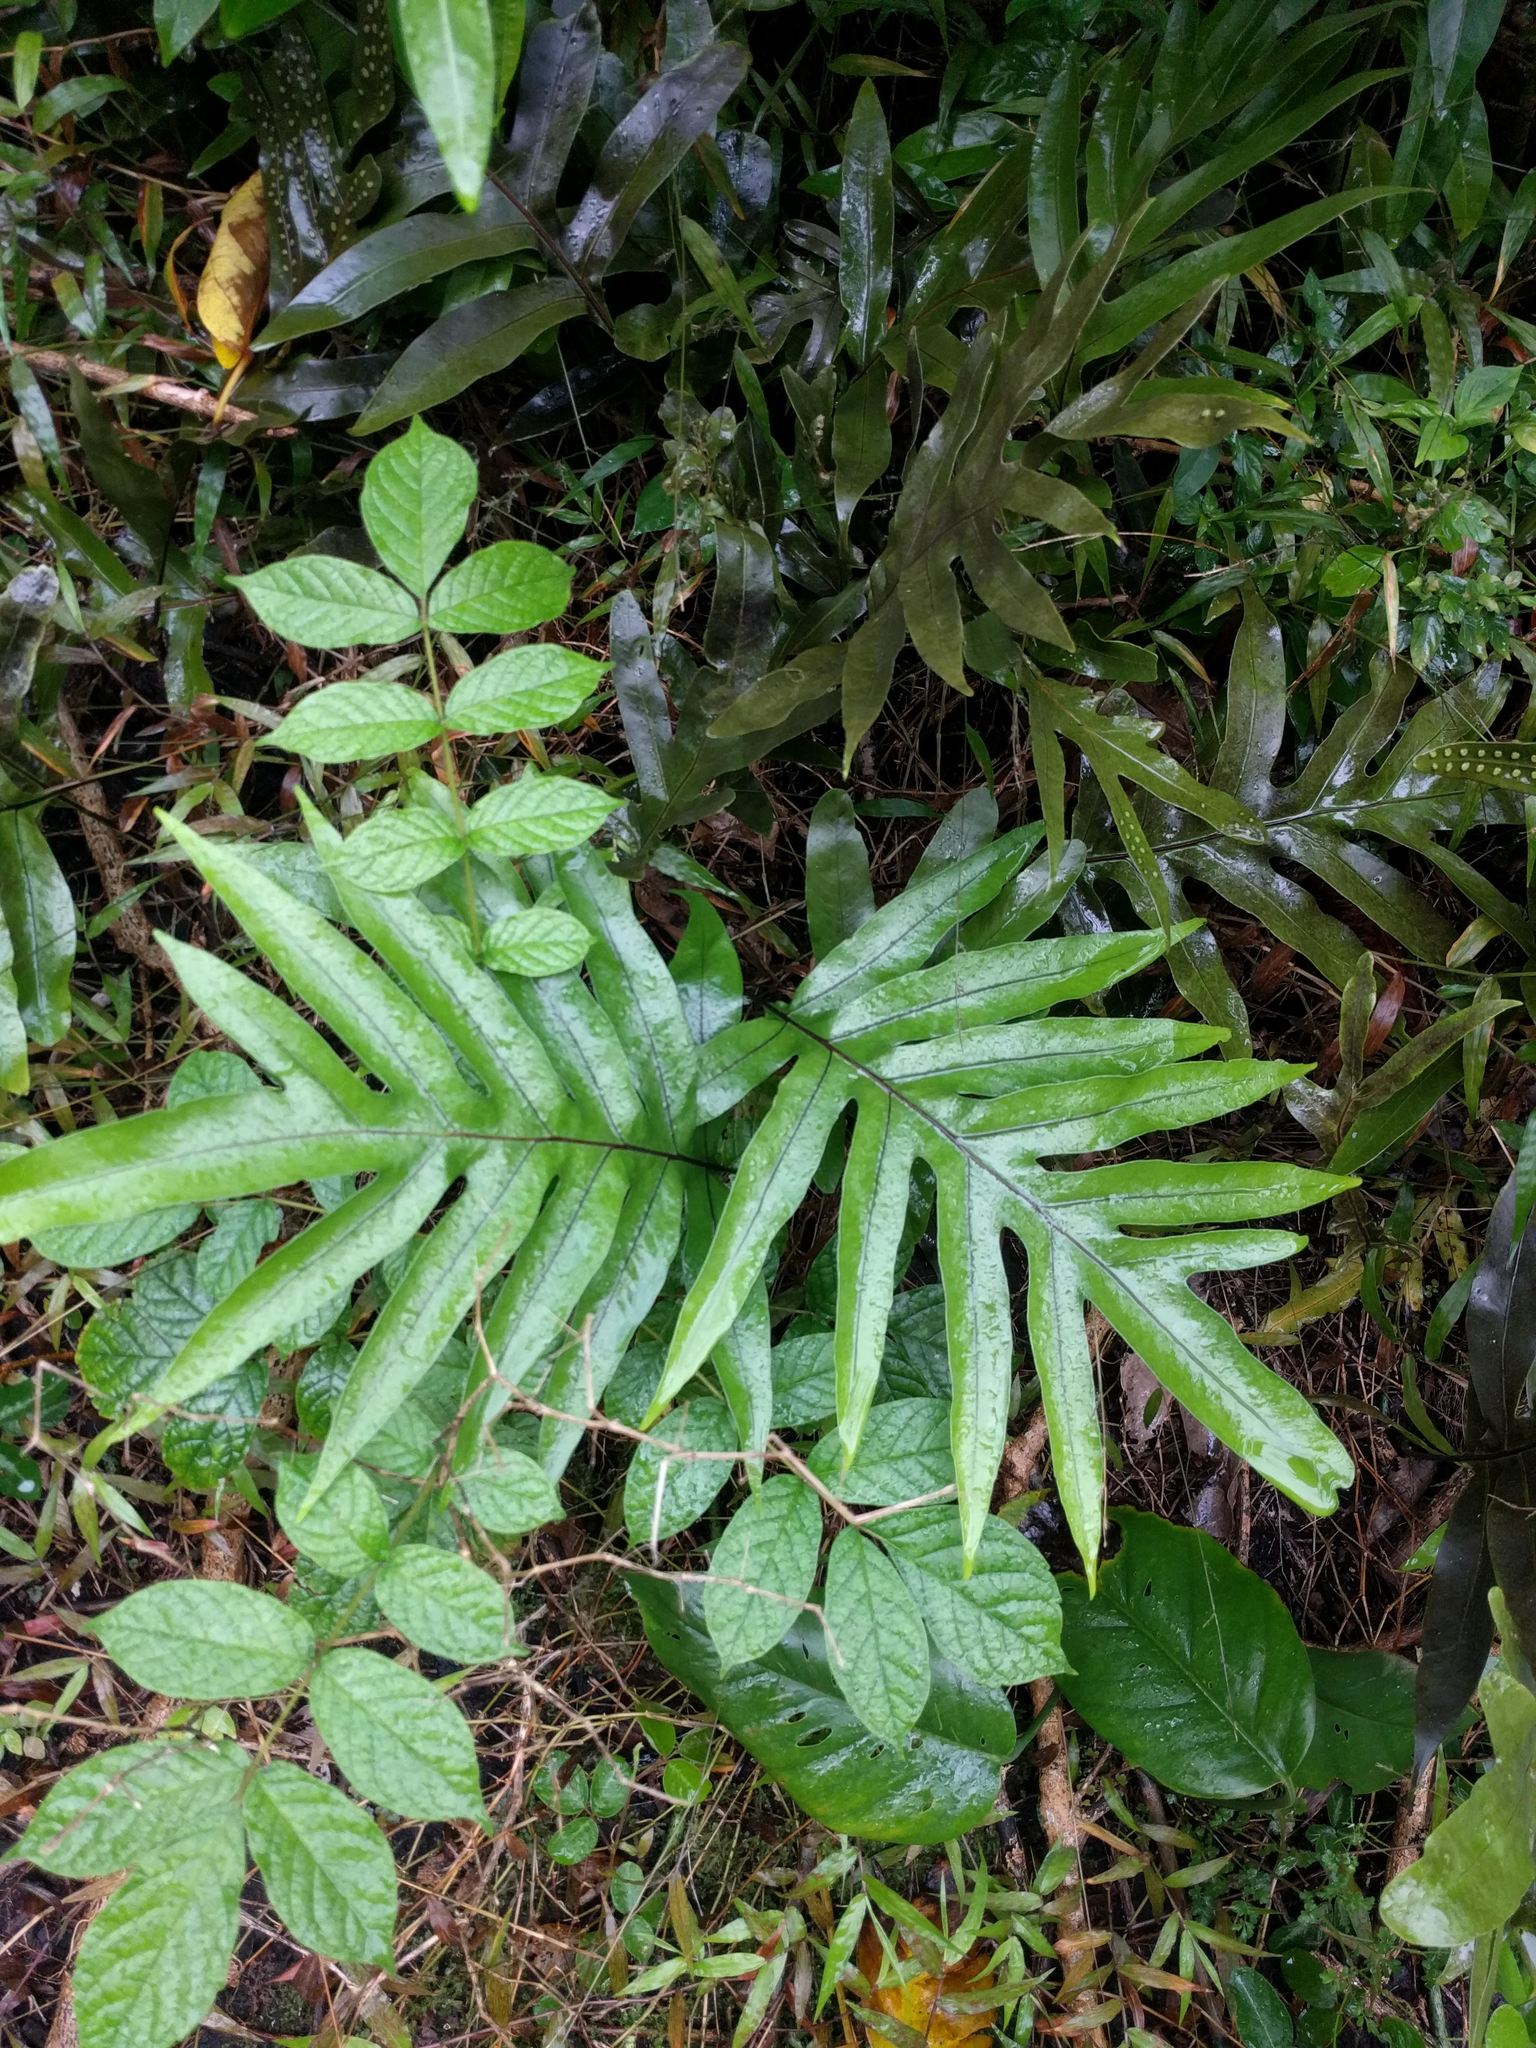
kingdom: Plantae
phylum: Tracheophyta
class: Polypodiopsida
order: Polypodiales
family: Polypodiaceae
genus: Microsorum
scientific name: Microsorum grossum
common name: Musk fern
